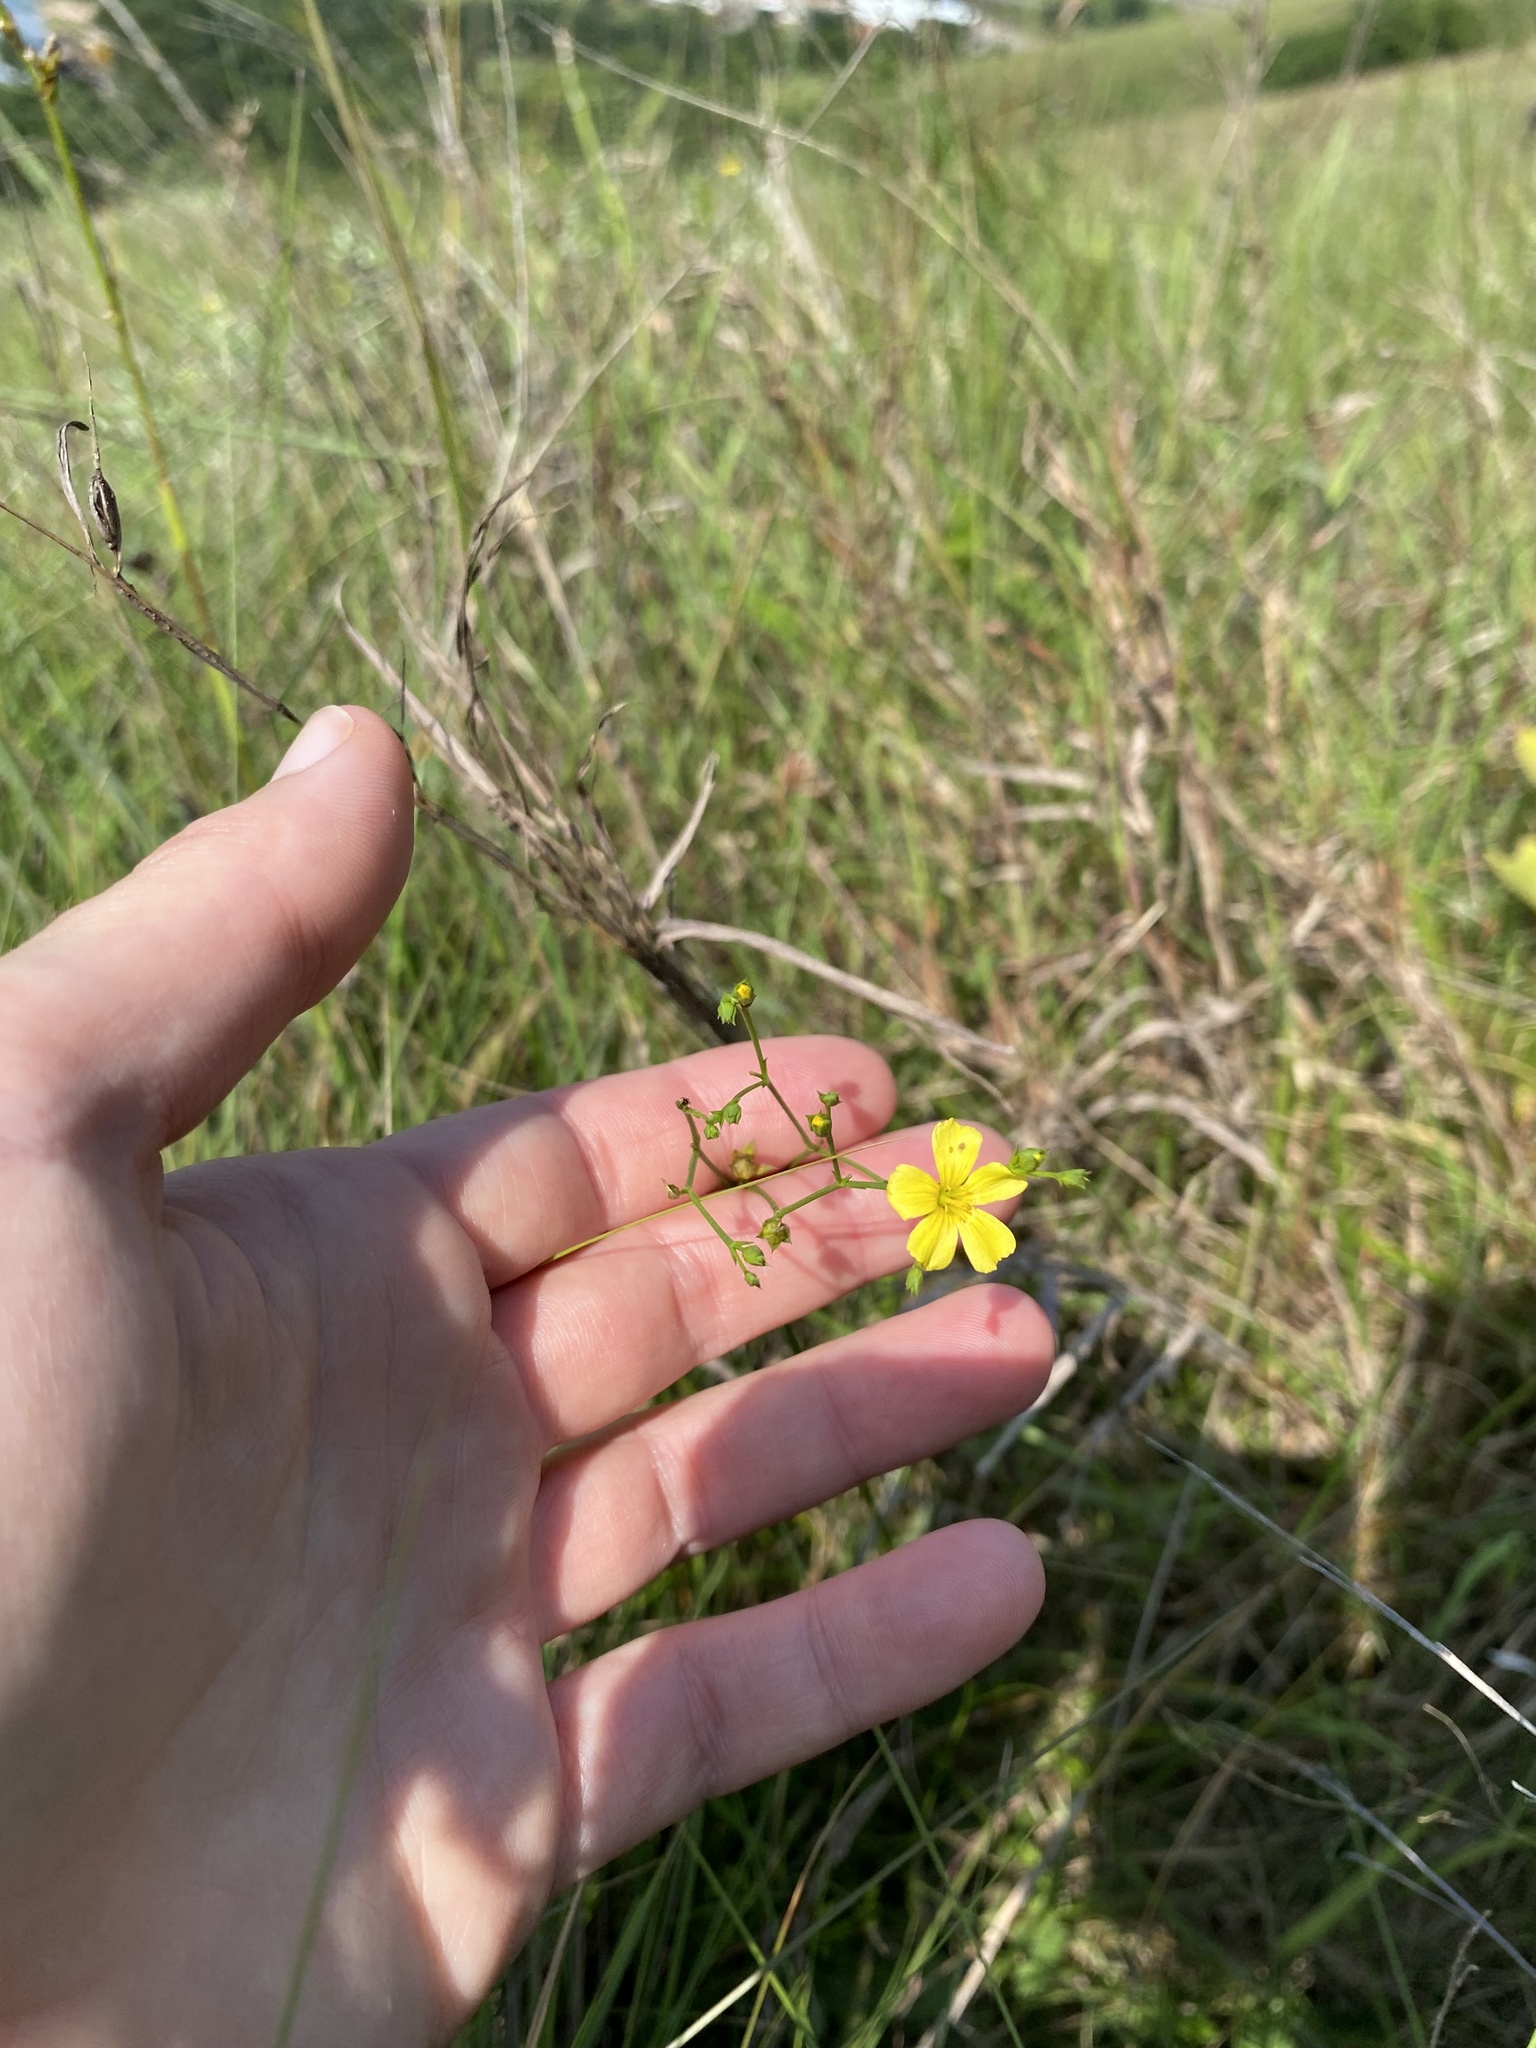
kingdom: Plantae
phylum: Tracheophyta
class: Magnoliopsida
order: Malpighiales
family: Linaceae
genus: Linum
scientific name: Linum thunbergii
